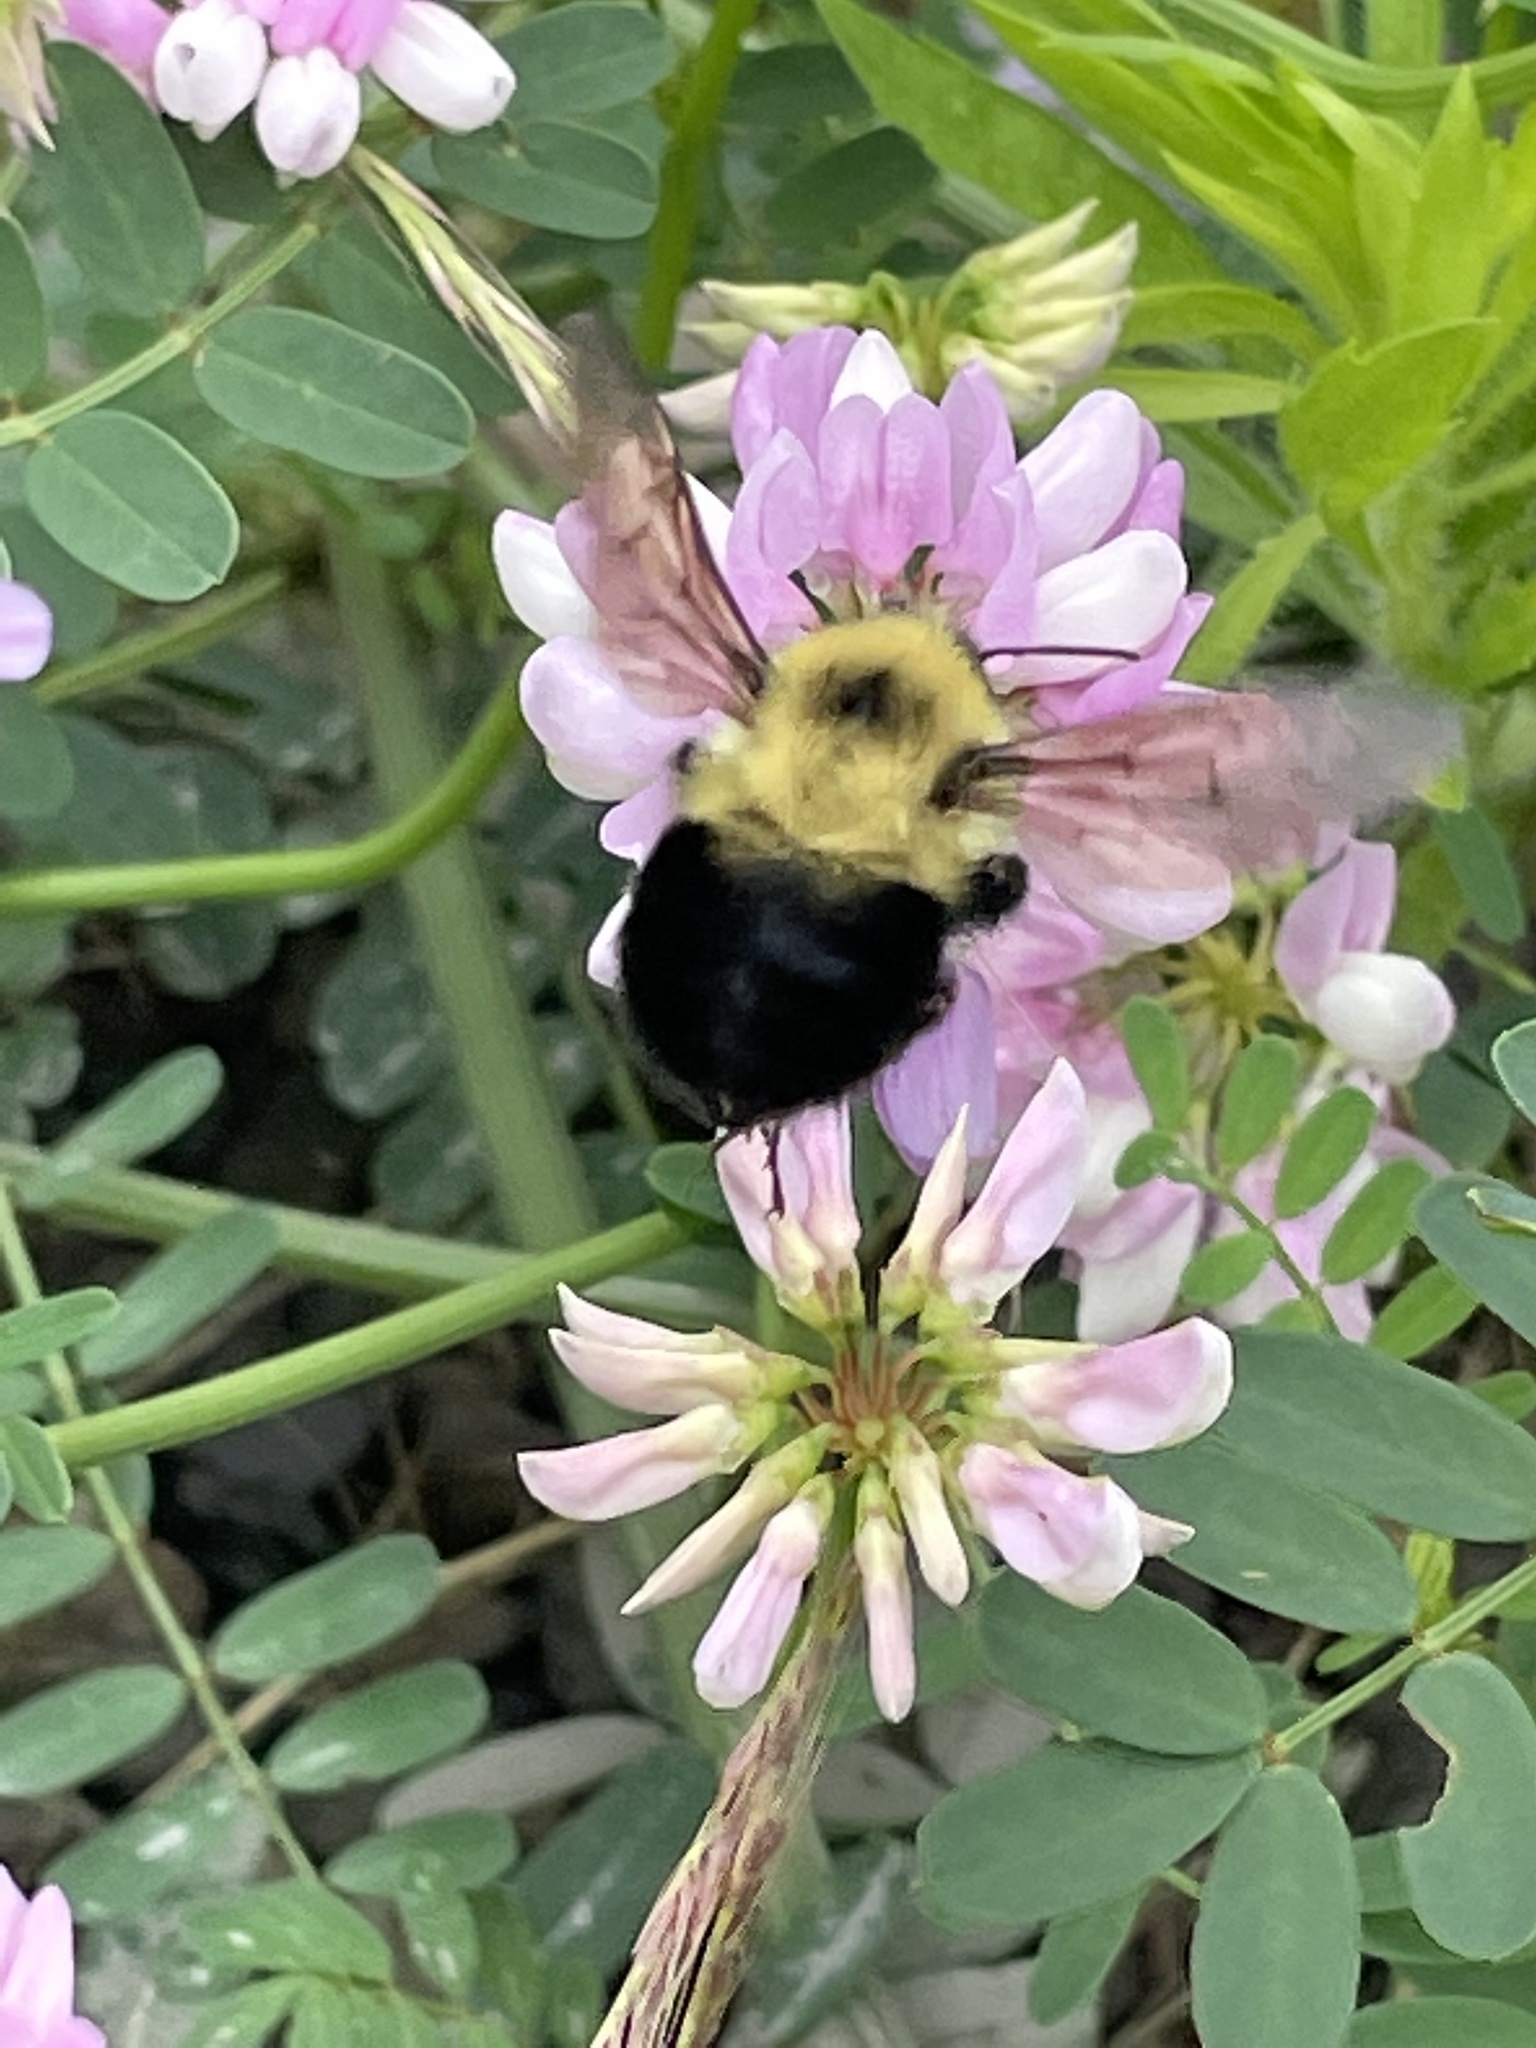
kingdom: Animalia
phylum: Arthropoda
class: Insecta
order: Hymenoptera
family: Apidae
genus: Bombus
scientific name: Bombus bimaculatus
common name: Two-spotted bumble bee
